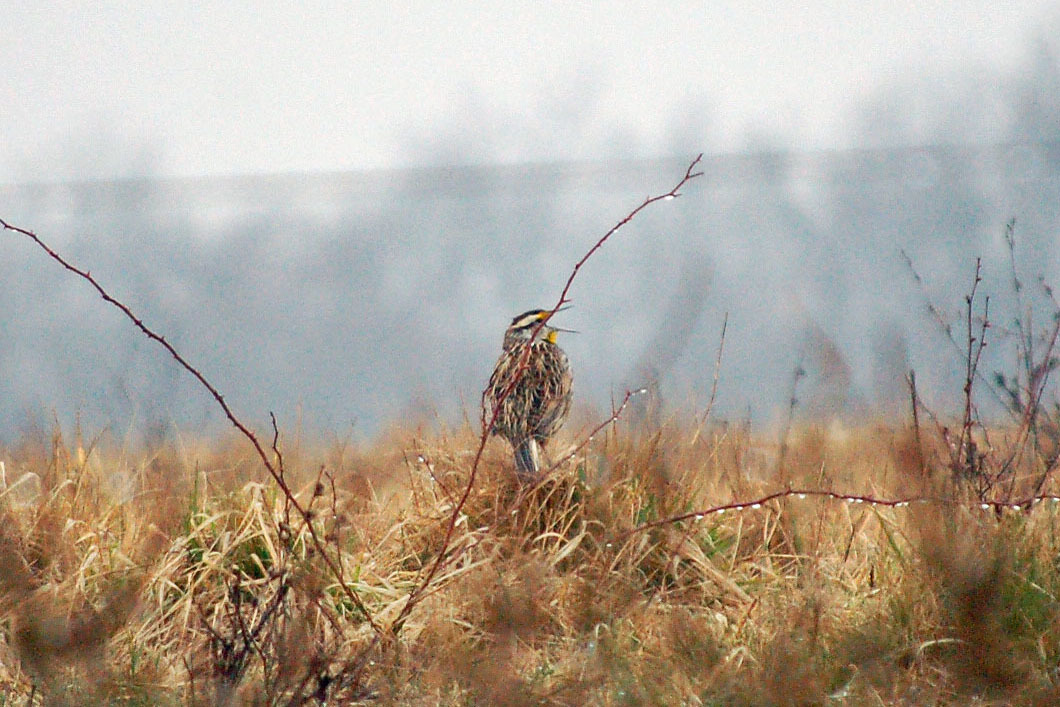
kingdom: Animalia
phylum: Chordata
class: Aves
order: Passeriformes
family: Icteridae
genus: Sturnella
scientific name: Sturnella magna
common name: Eastern meadowlark
